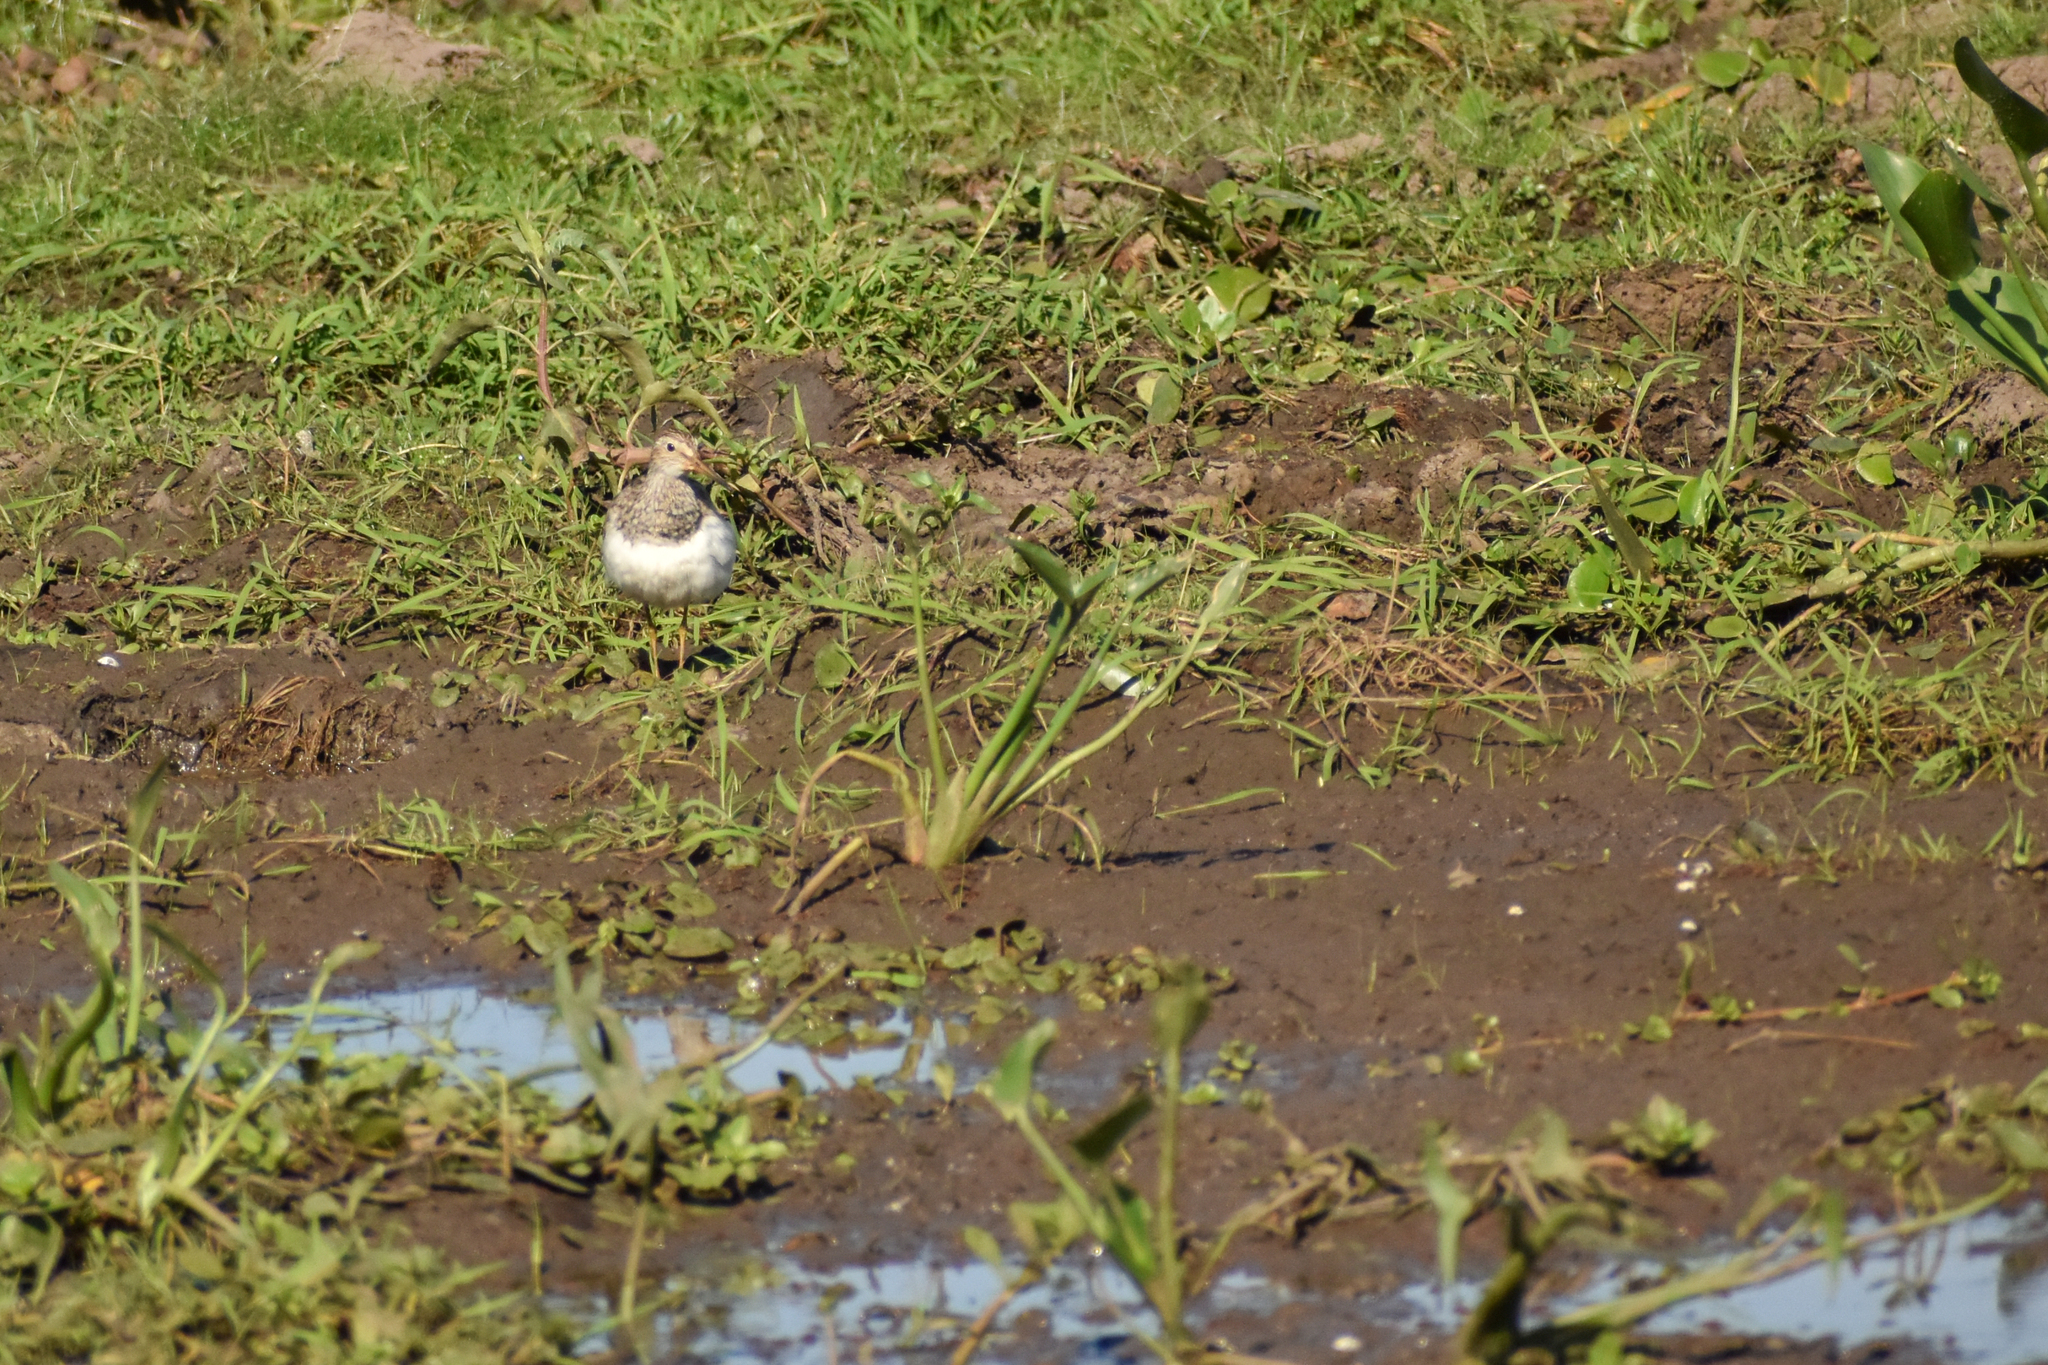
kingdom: Animalia
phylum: Chordata
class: Aves
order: Charadriiformes
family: Scolopacidae
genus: Calidris
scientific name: Calidris melanotos
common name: Pectoral sandpiper
